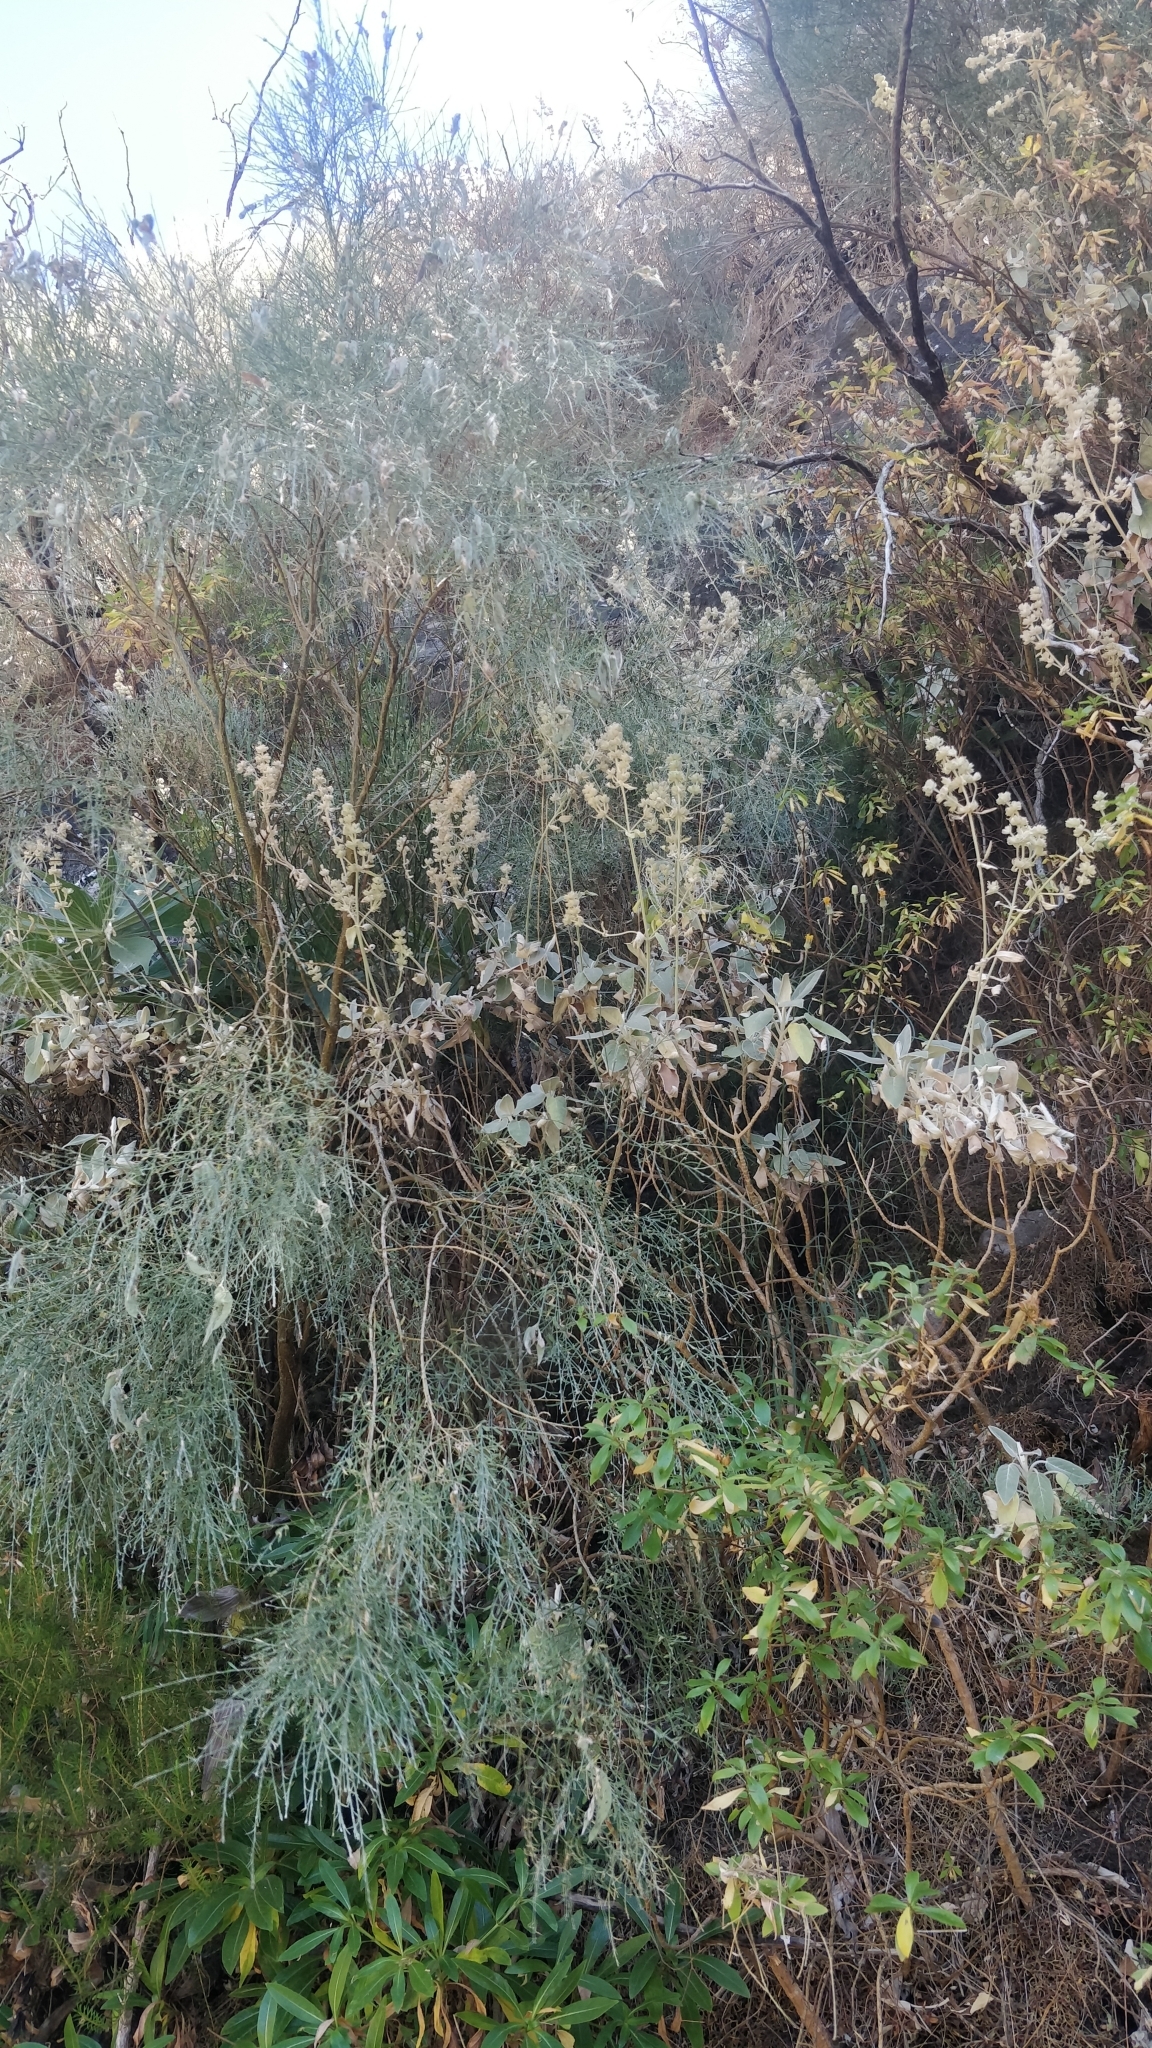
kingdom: Plantae
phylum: Tracheophyta
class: Magnoliopsida
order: Lamiales
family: Lamiaceae
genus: Sideritis
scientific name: Sideritis candicans
